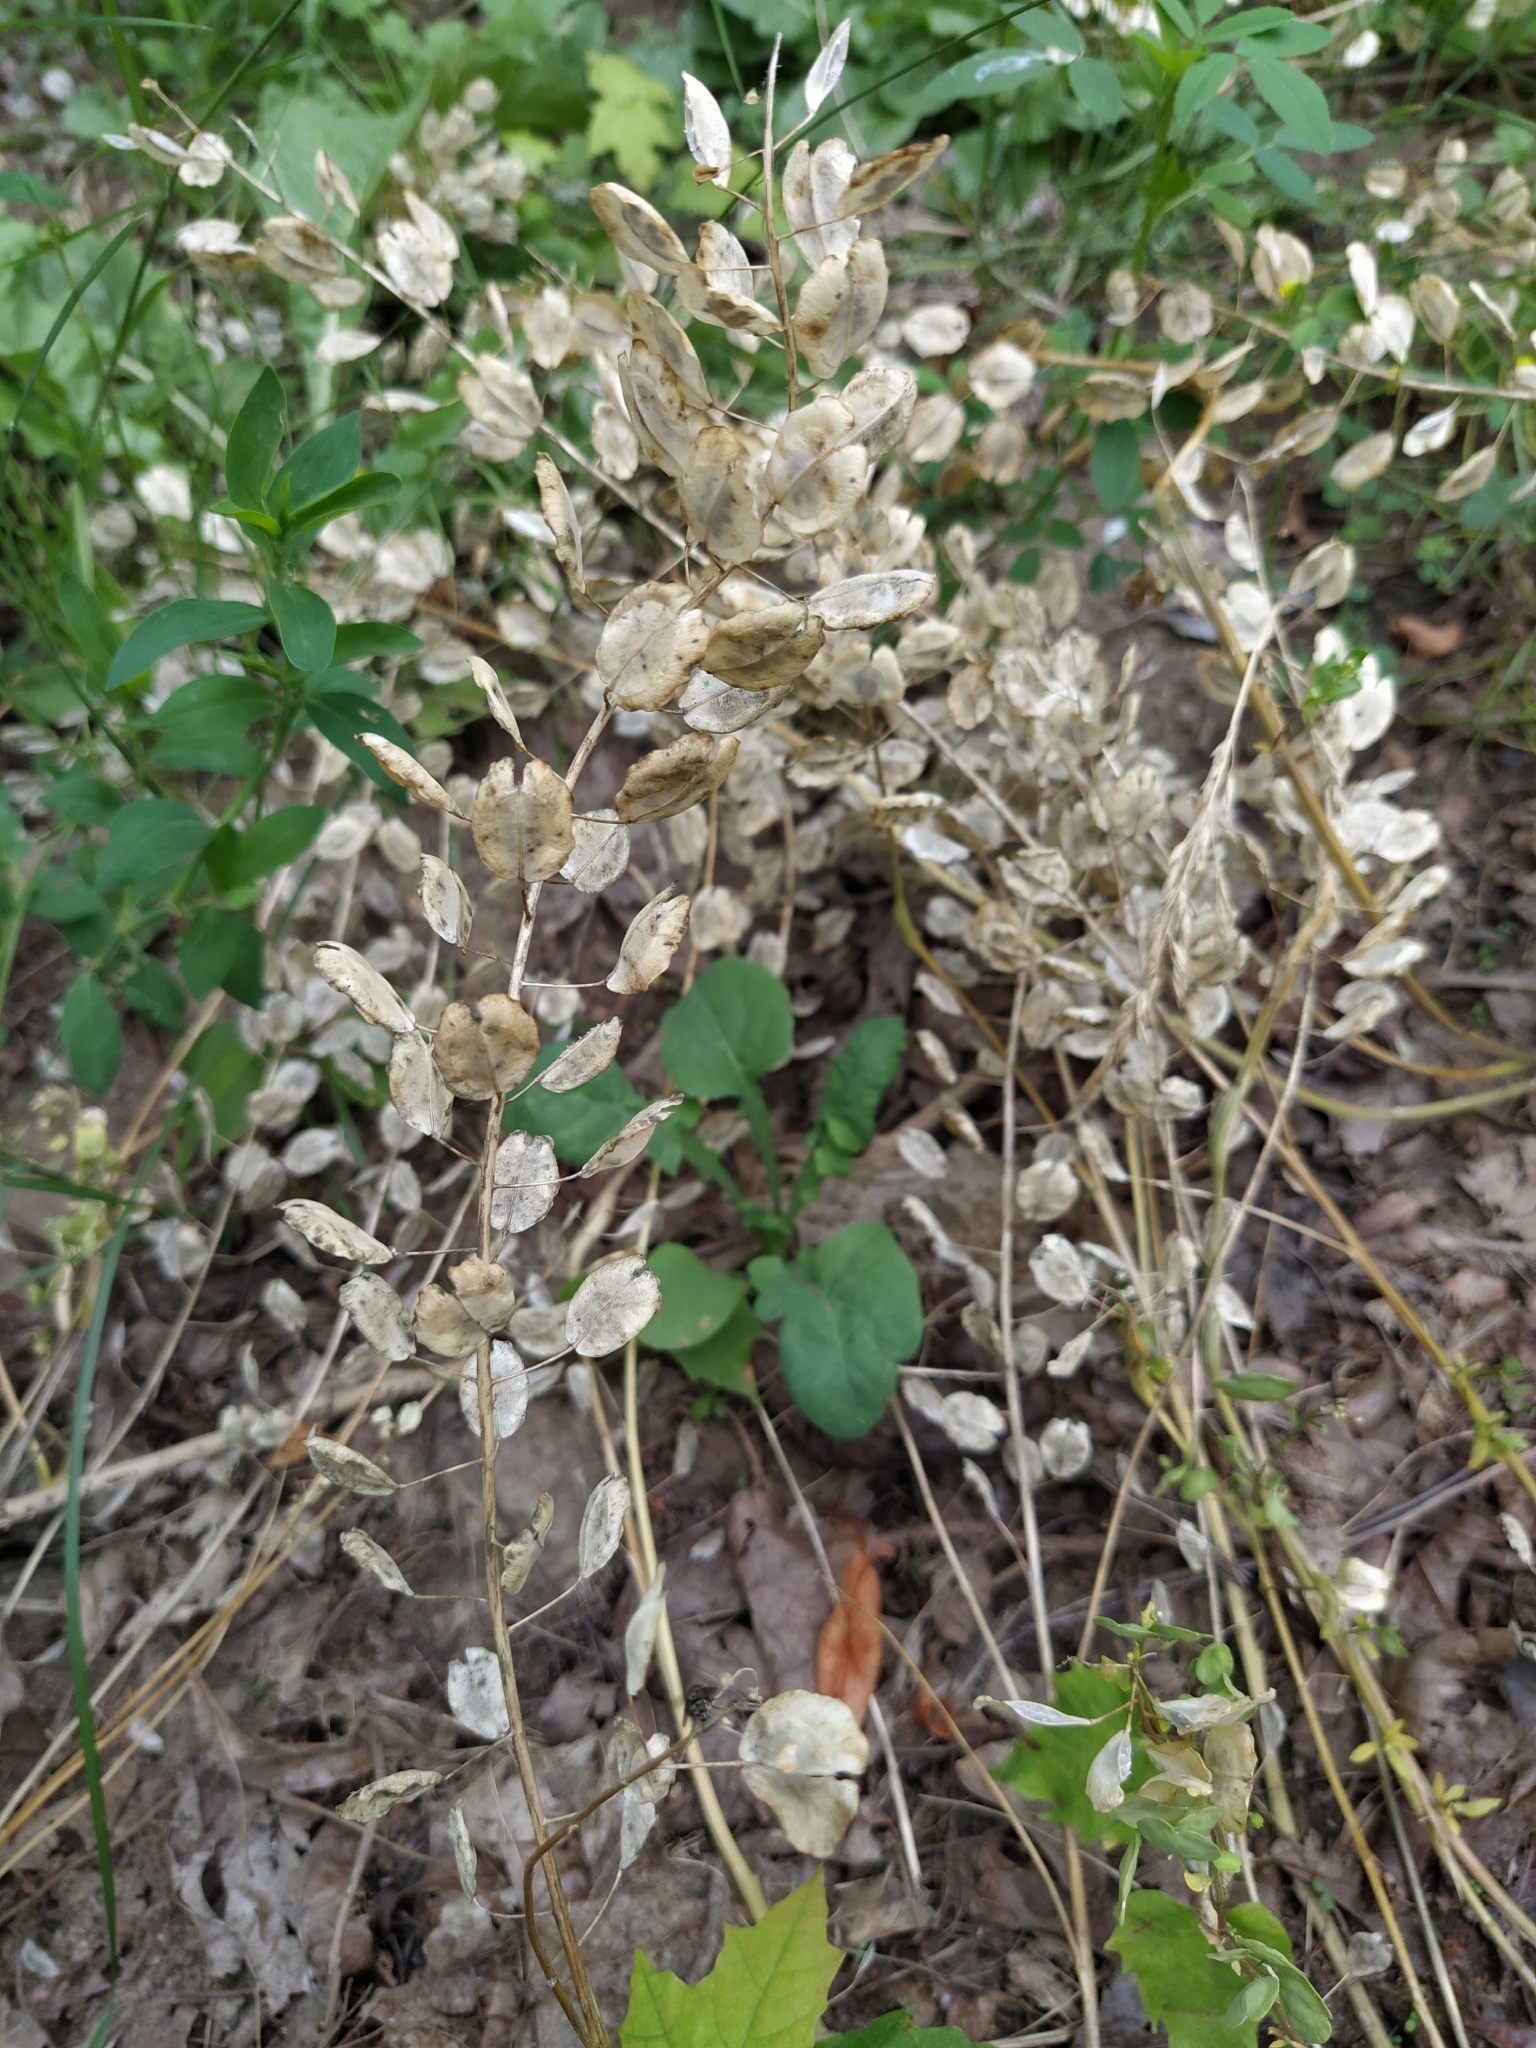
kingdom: Plantae
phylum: Tracheophyta
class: Magnoliopsida
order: Brassicales
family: Brassicaceae
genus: Thlaspi
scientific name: Thlaspi arvense
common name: Field pennycress
